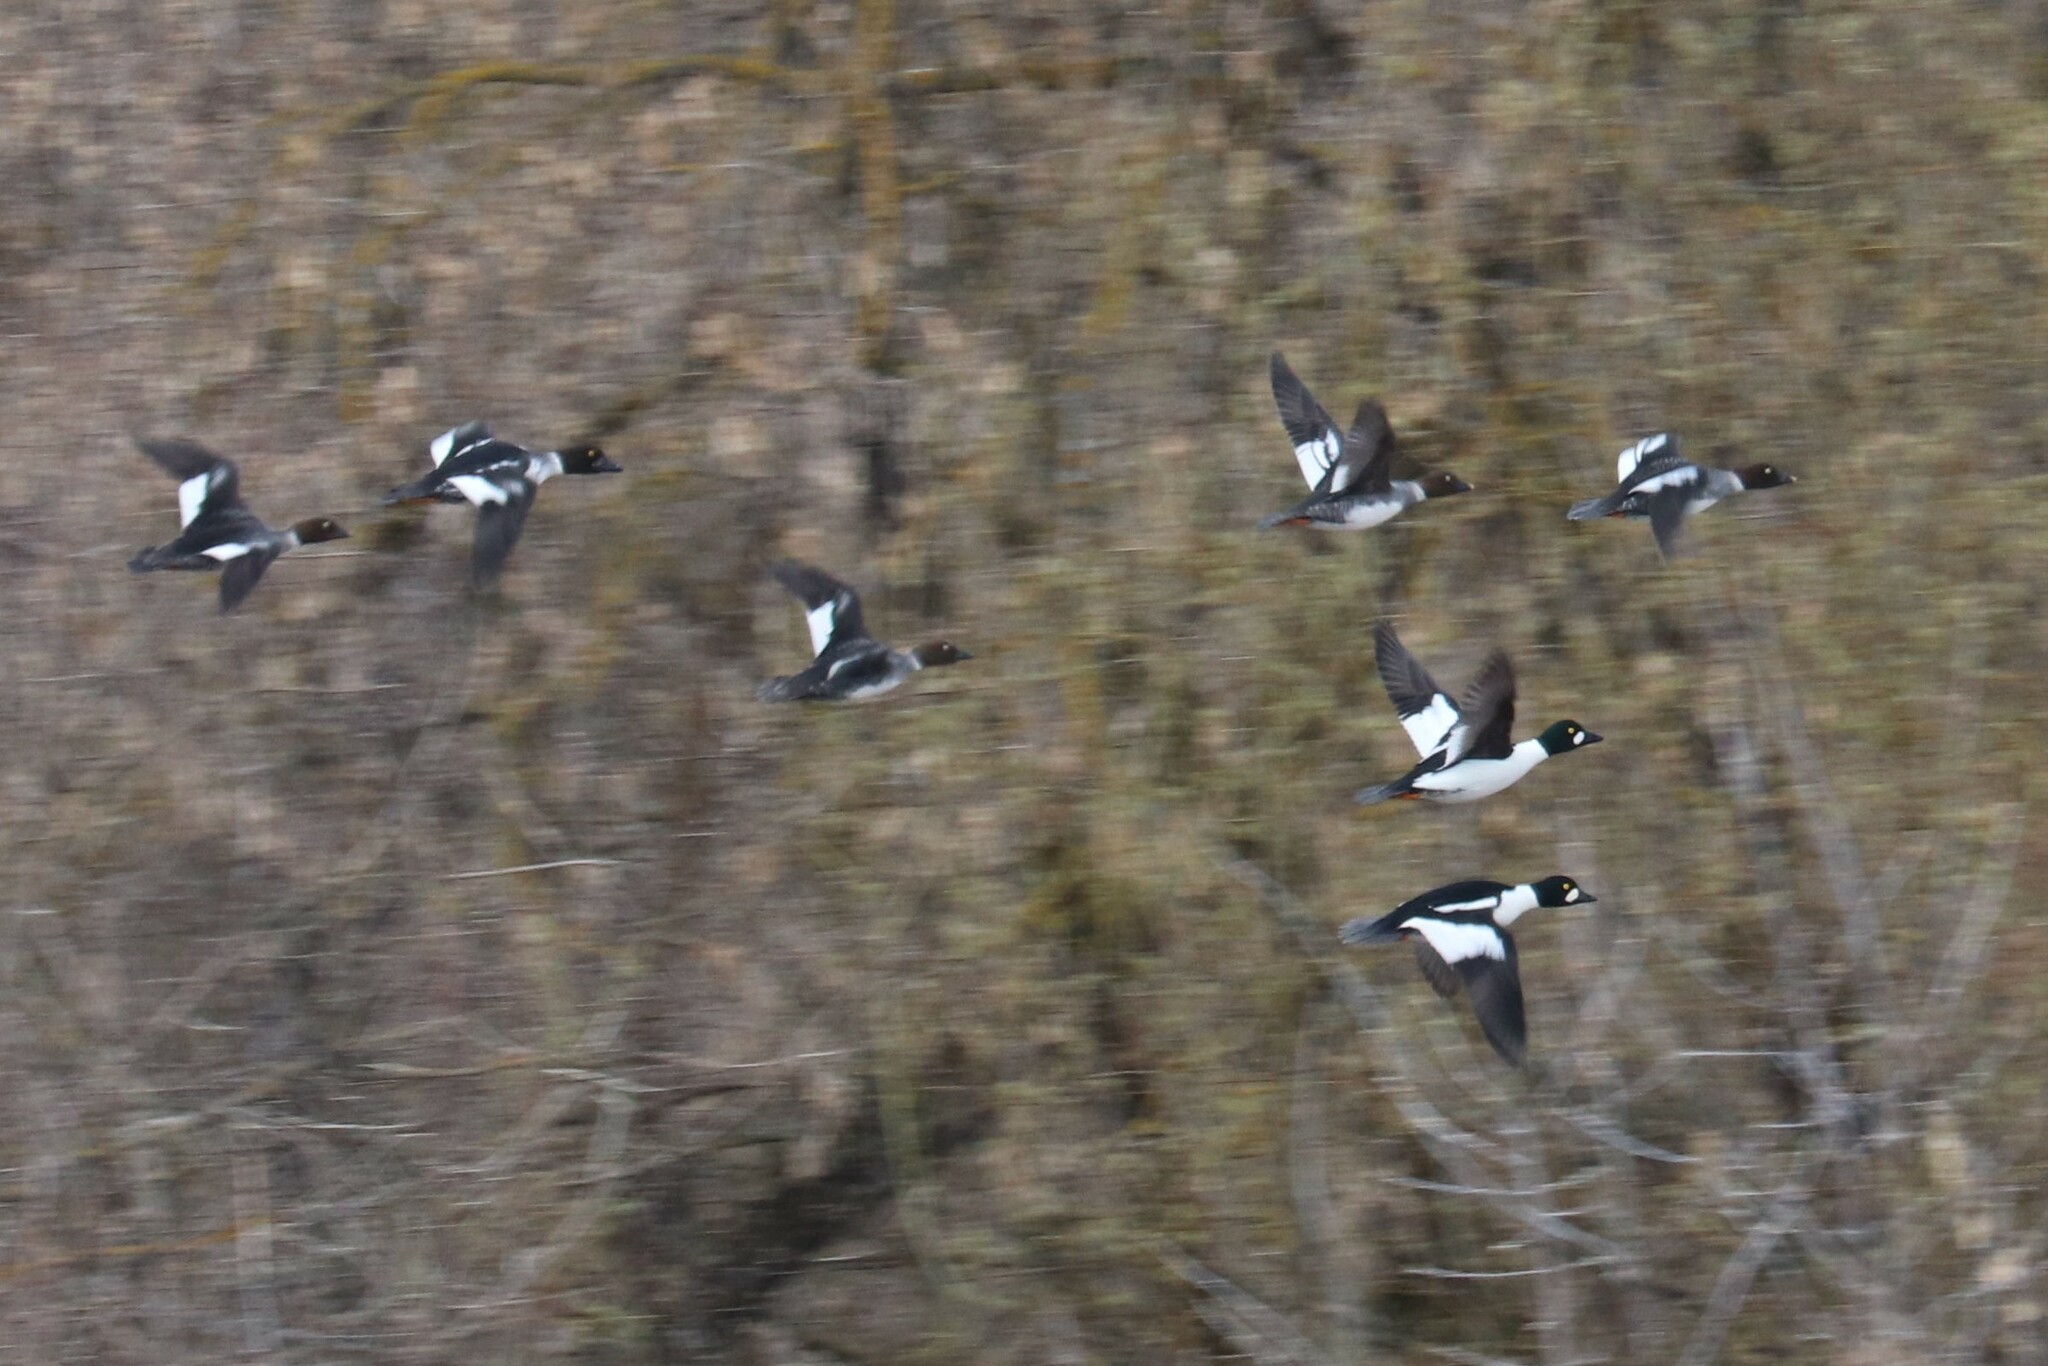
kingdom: Animalia
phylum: Chordata
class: Aves
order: Anseriformes
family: Anatidae
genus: Bucephala
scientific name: Bucephala clangula
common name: Common goldeneye
